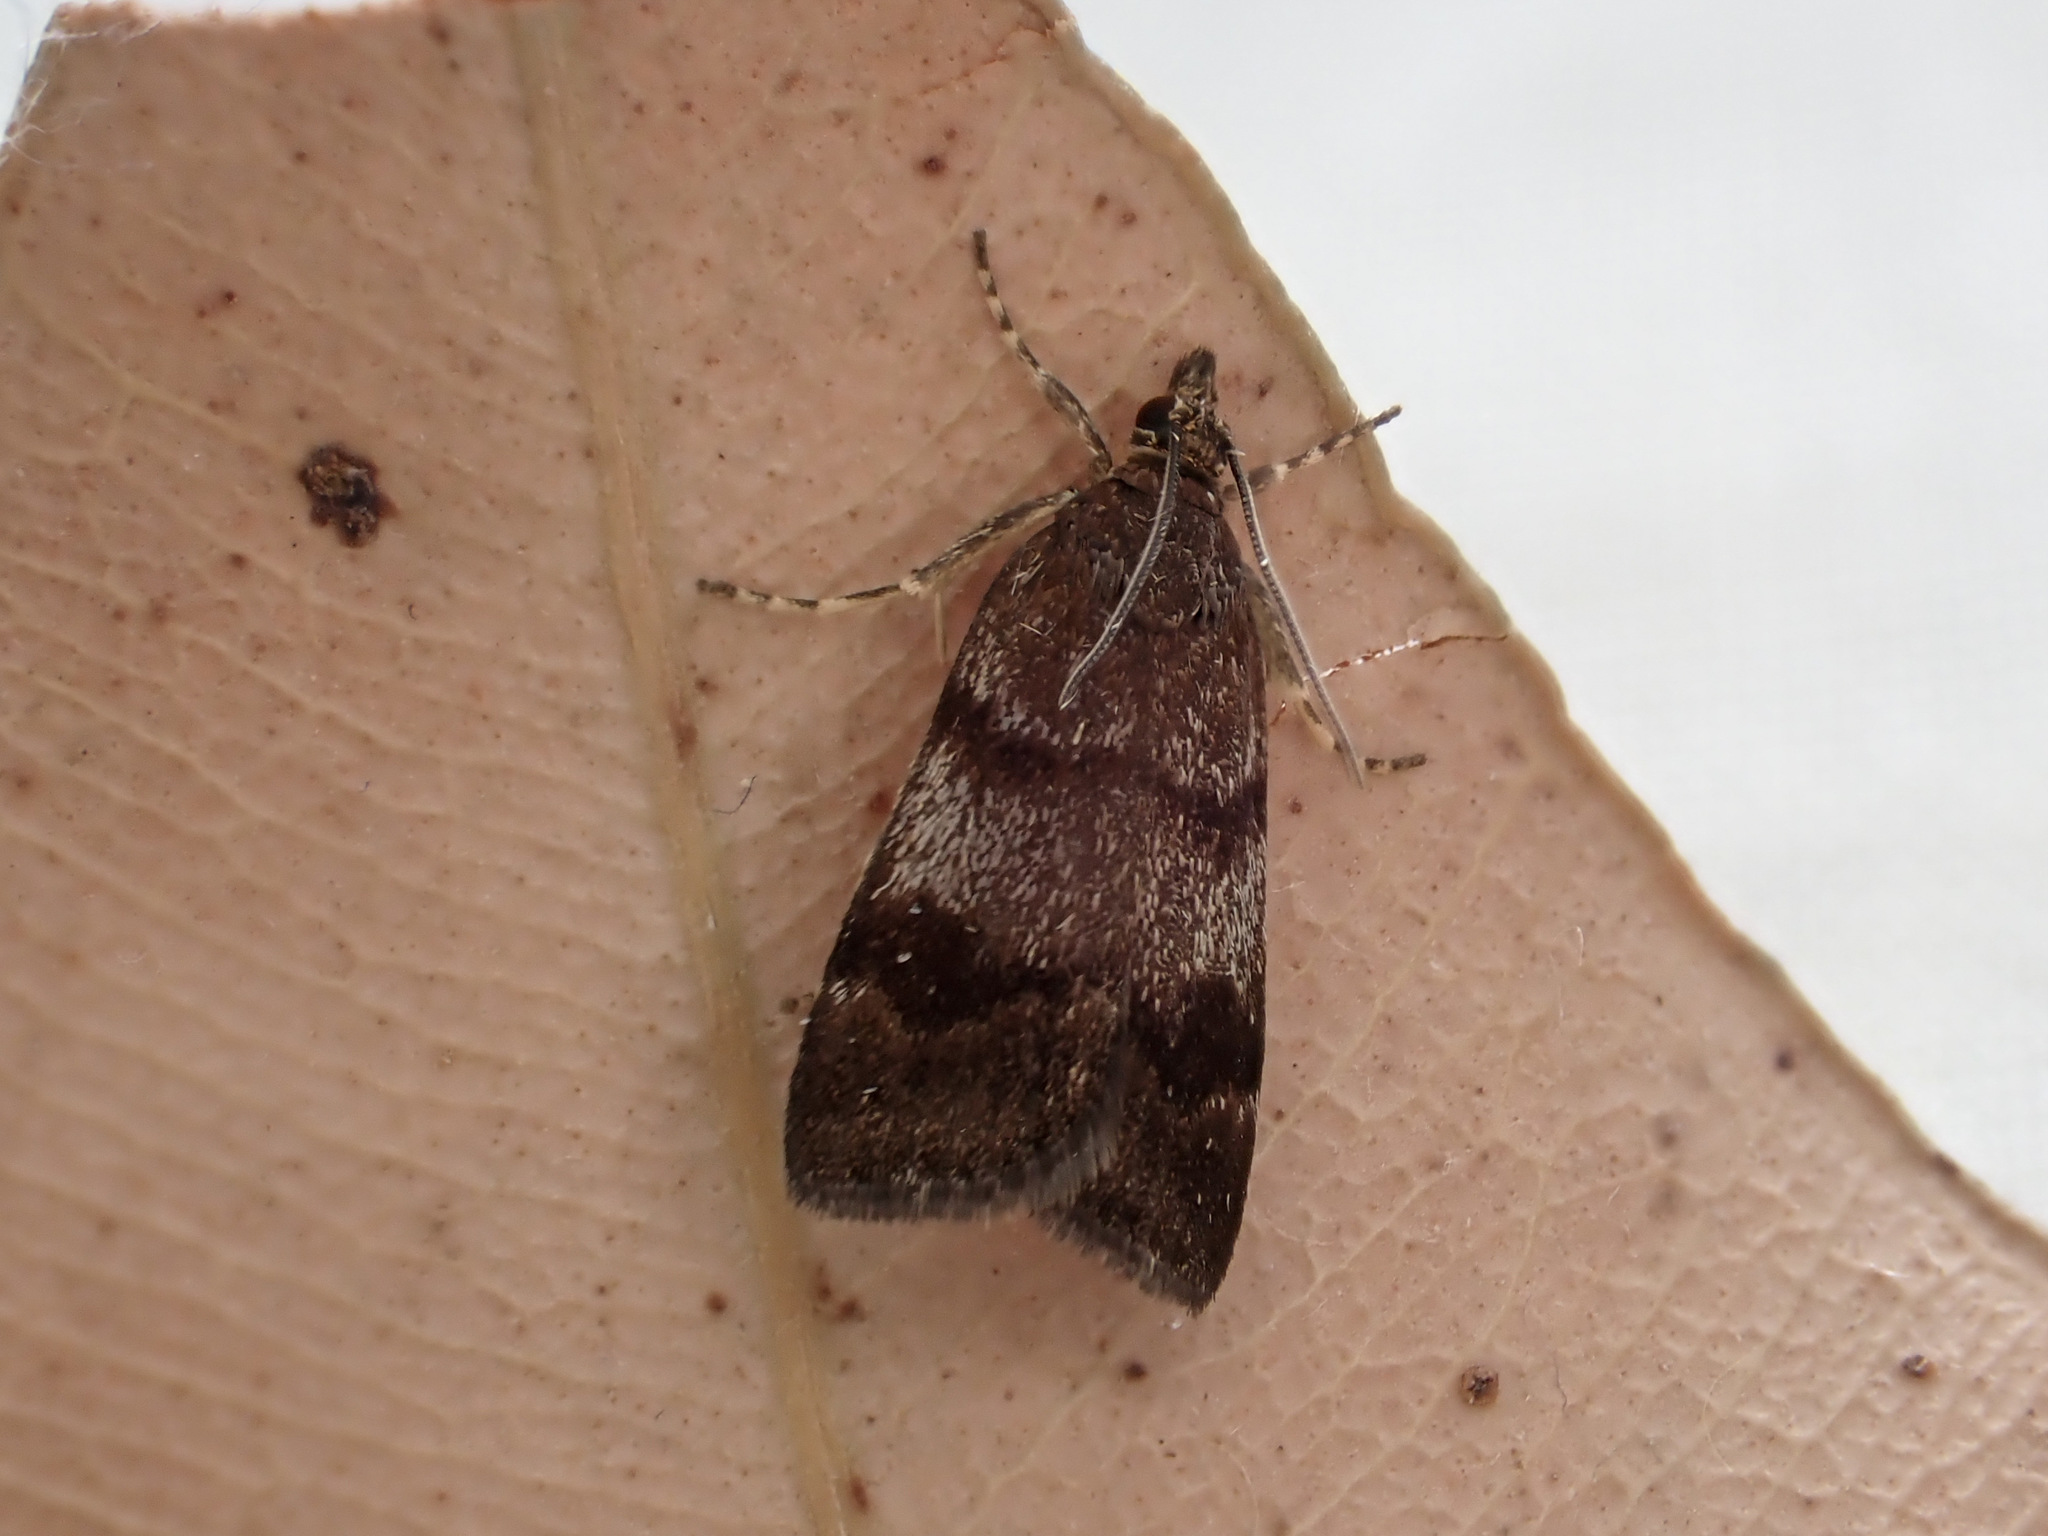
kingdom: Animalia
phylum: Arthropoda
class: Insecta
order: Lepidoptera
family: Crambidae
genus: Scoparia
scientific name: Scoparia ergatis
